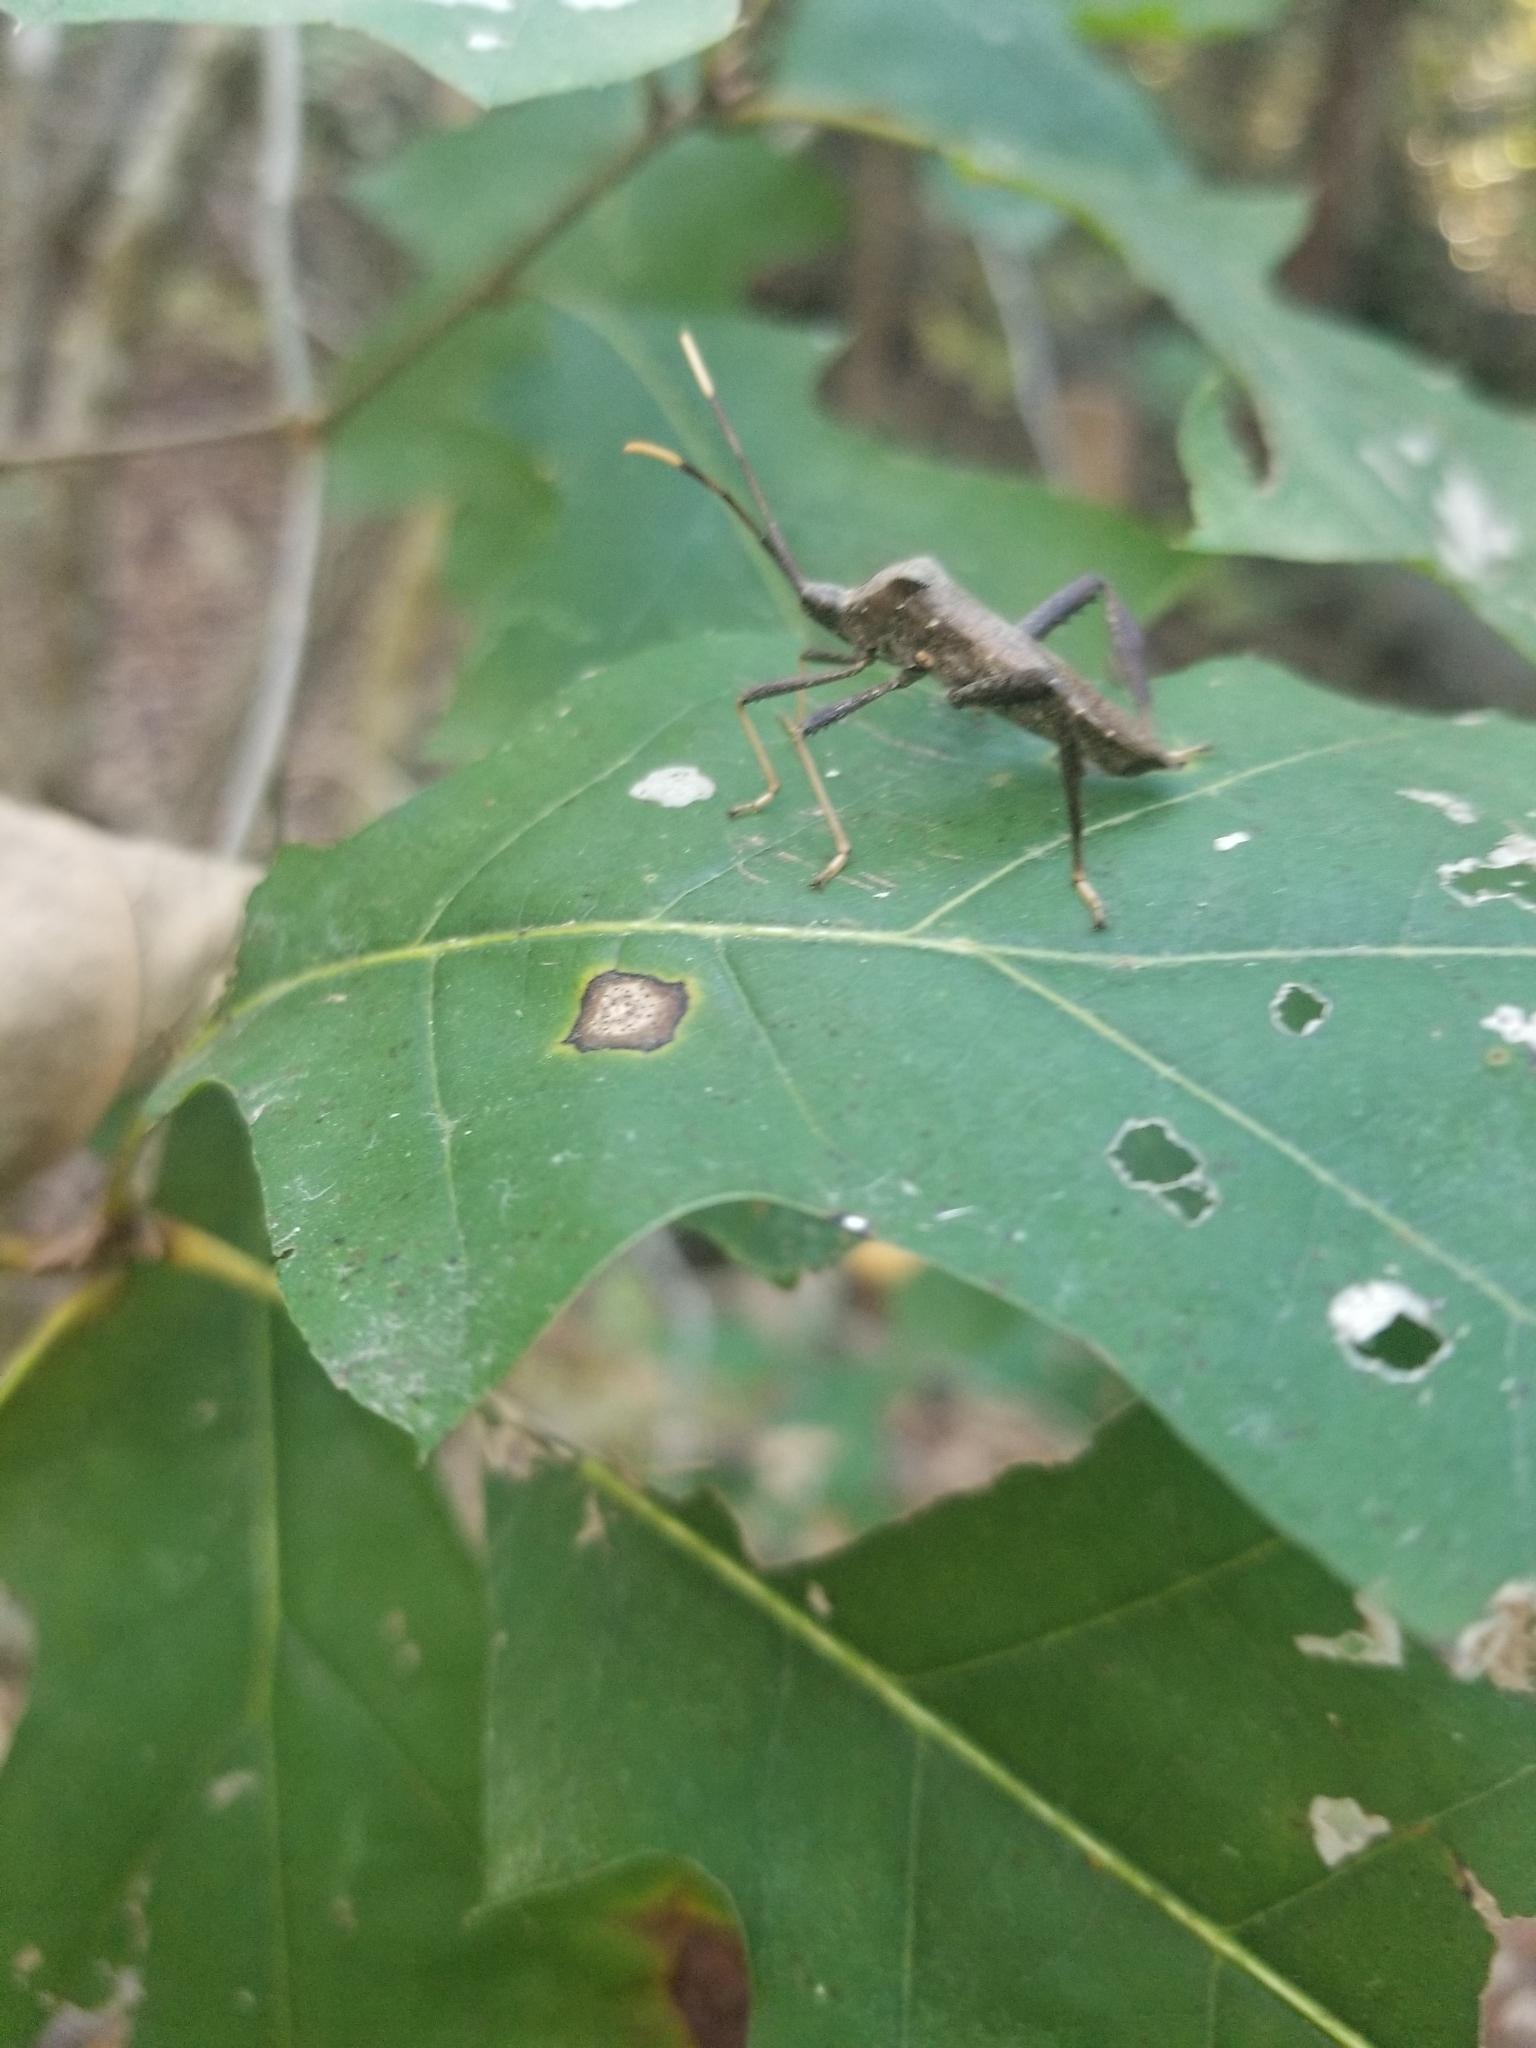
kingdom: Animalia
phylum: Arthropoda
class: Insecta
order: Hemiptera
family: Coreidae
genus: Acanthocephala
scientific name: Acanthocephala terminalis
